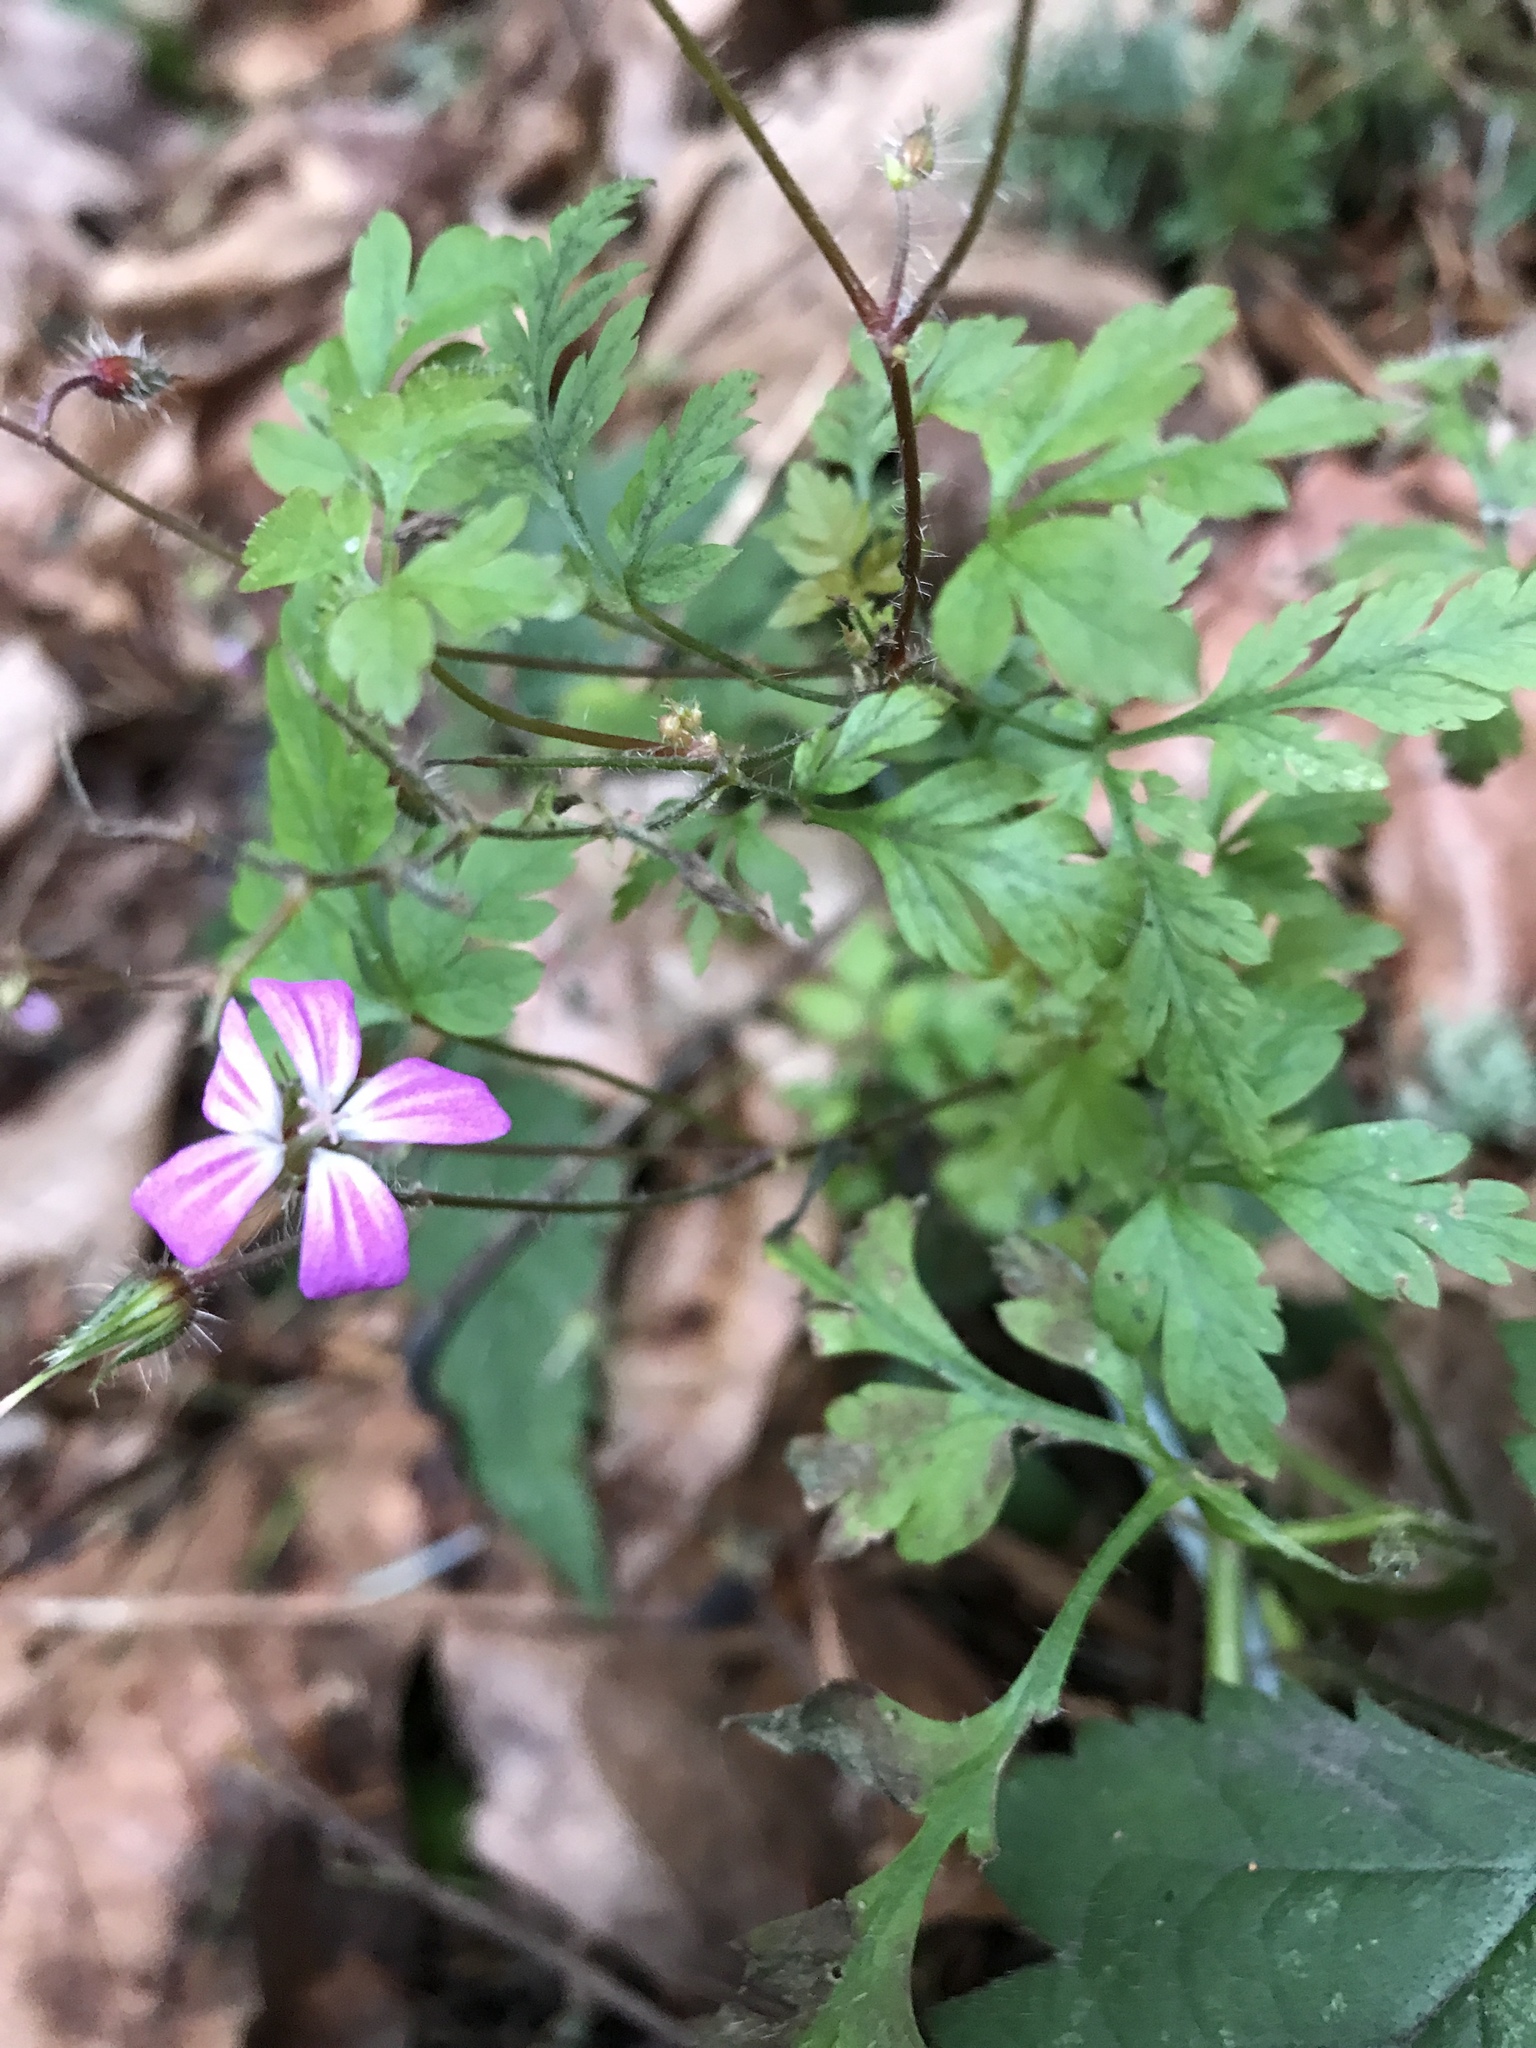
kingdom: Plantae
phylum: Tracheophyta
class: Magnoliopsida
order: Geraniales
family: Geraniaceae
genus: Geranium
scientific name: Geranium robertianum
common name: Herb-robert
